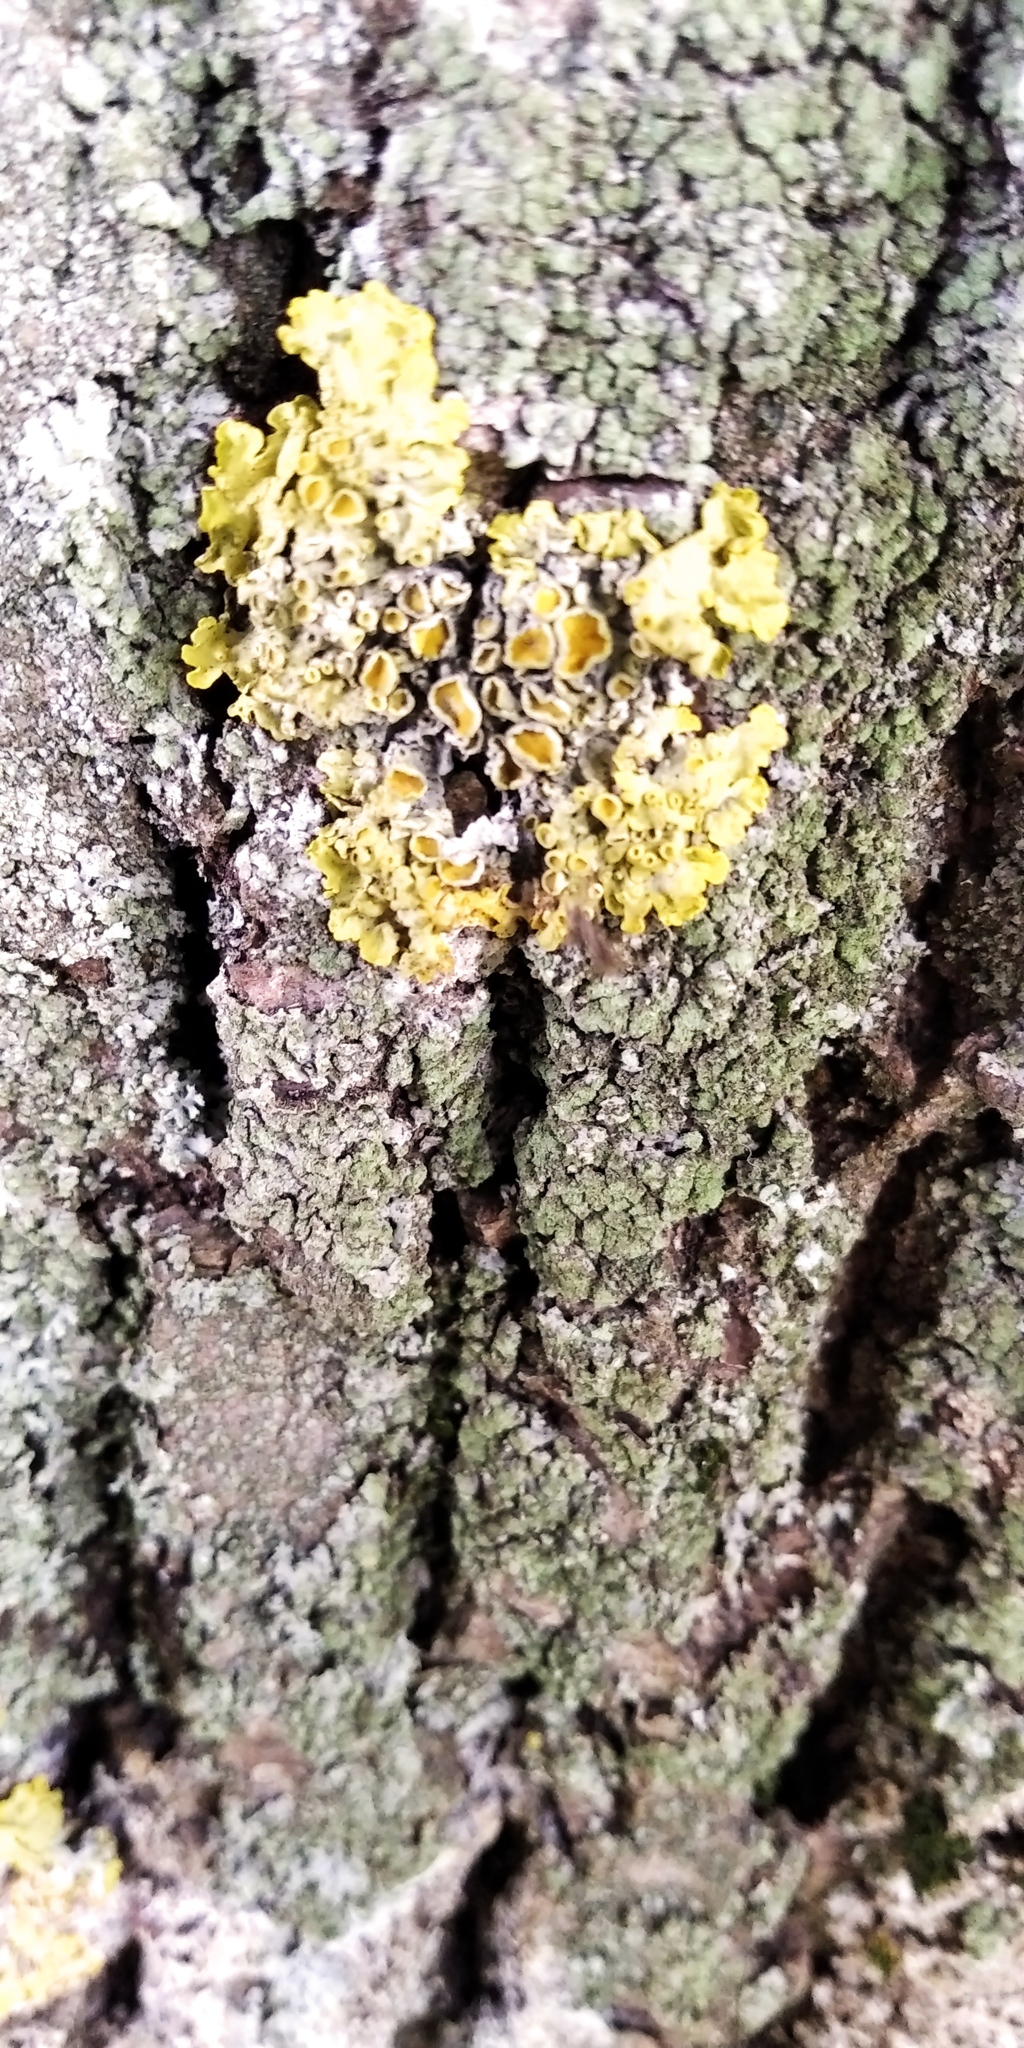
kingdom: Fungi
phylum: Ascomycota
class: Lecanoromycetes
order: Teloschistales
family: Teloschistaceae
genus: Xanthoria
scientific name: Xanthoria parietina
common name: Common orange lichen
